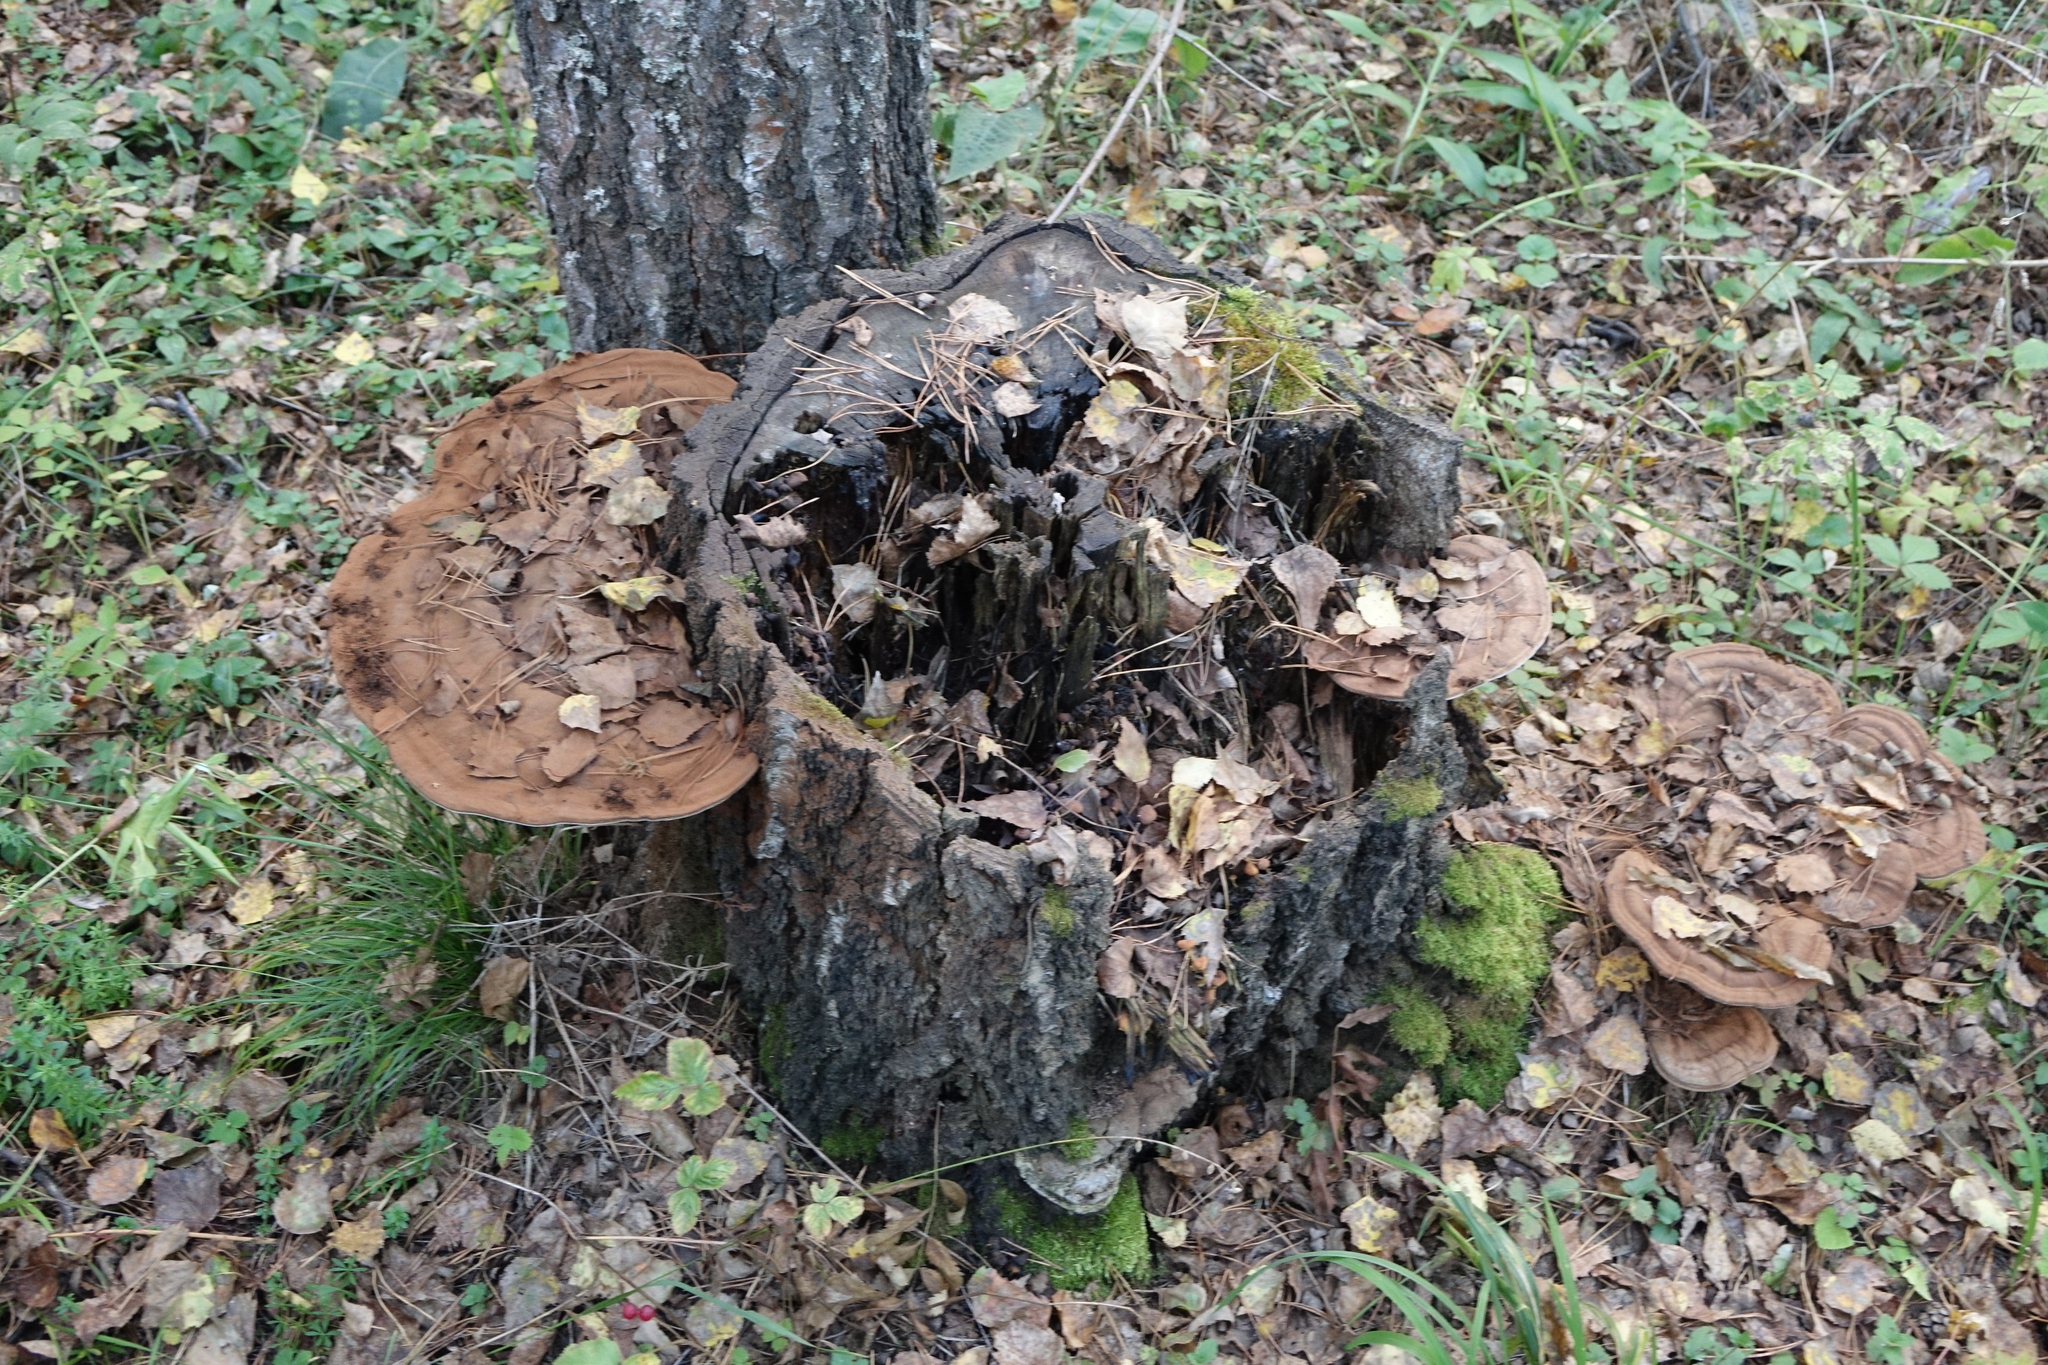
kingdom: Fungi
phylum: Basidiomycota
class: Agaricomycetes
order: Polyporales
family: Polyporaceae
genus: Ganoderma
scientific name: Ganoderma applanatum
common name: Artist's bracket
